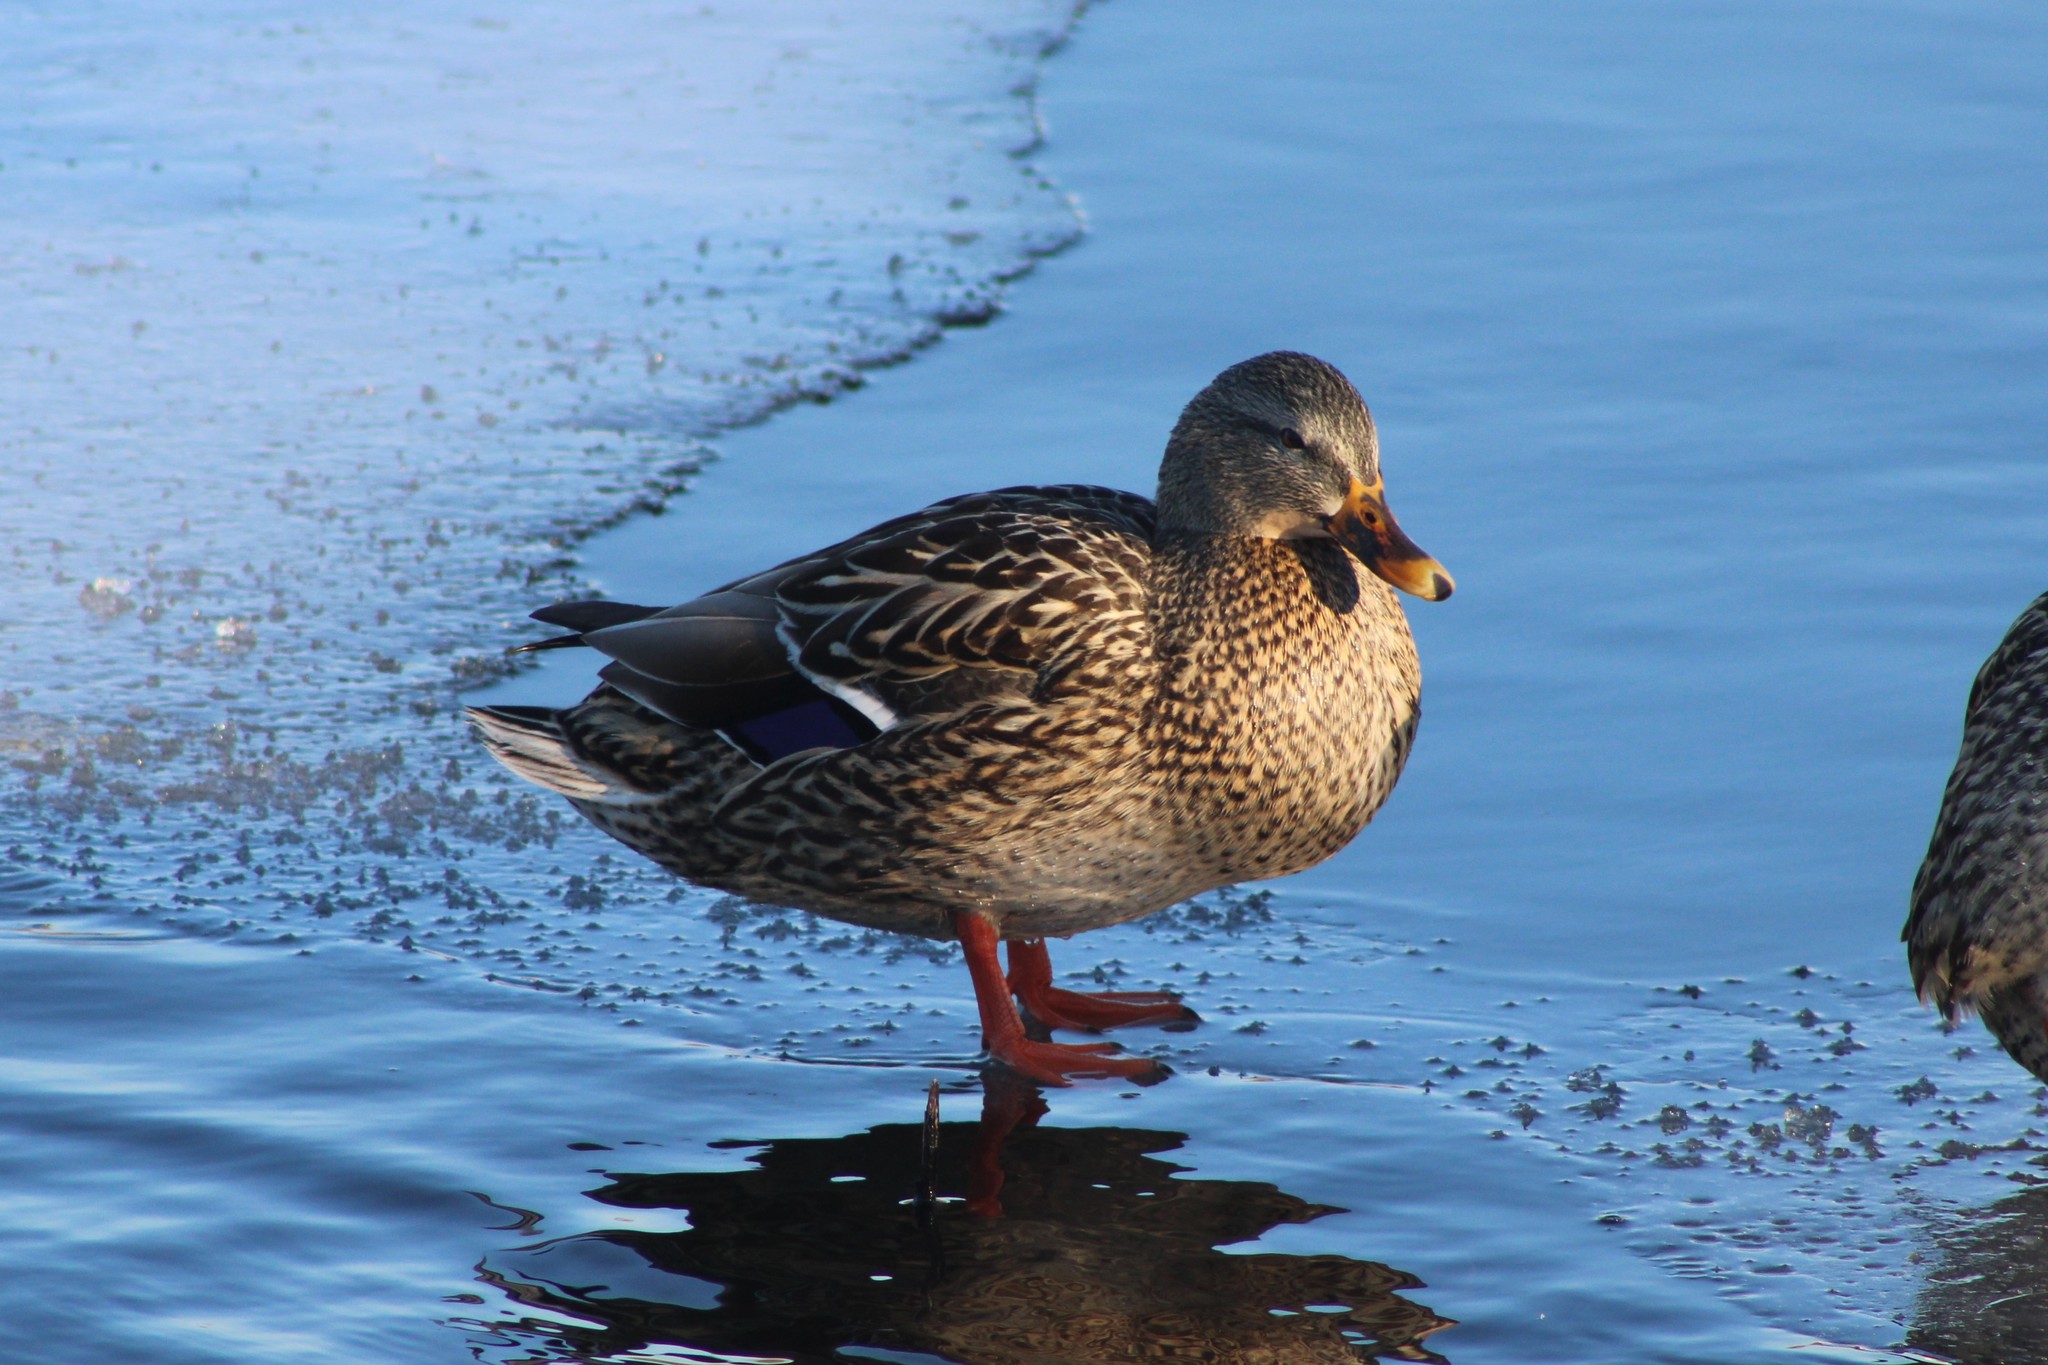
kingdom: Animalia
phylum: Chordata
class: Aves
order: Anseriformes
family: Anatidae
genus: Anas
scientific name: Anas platyrhynchos
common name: Mallard
